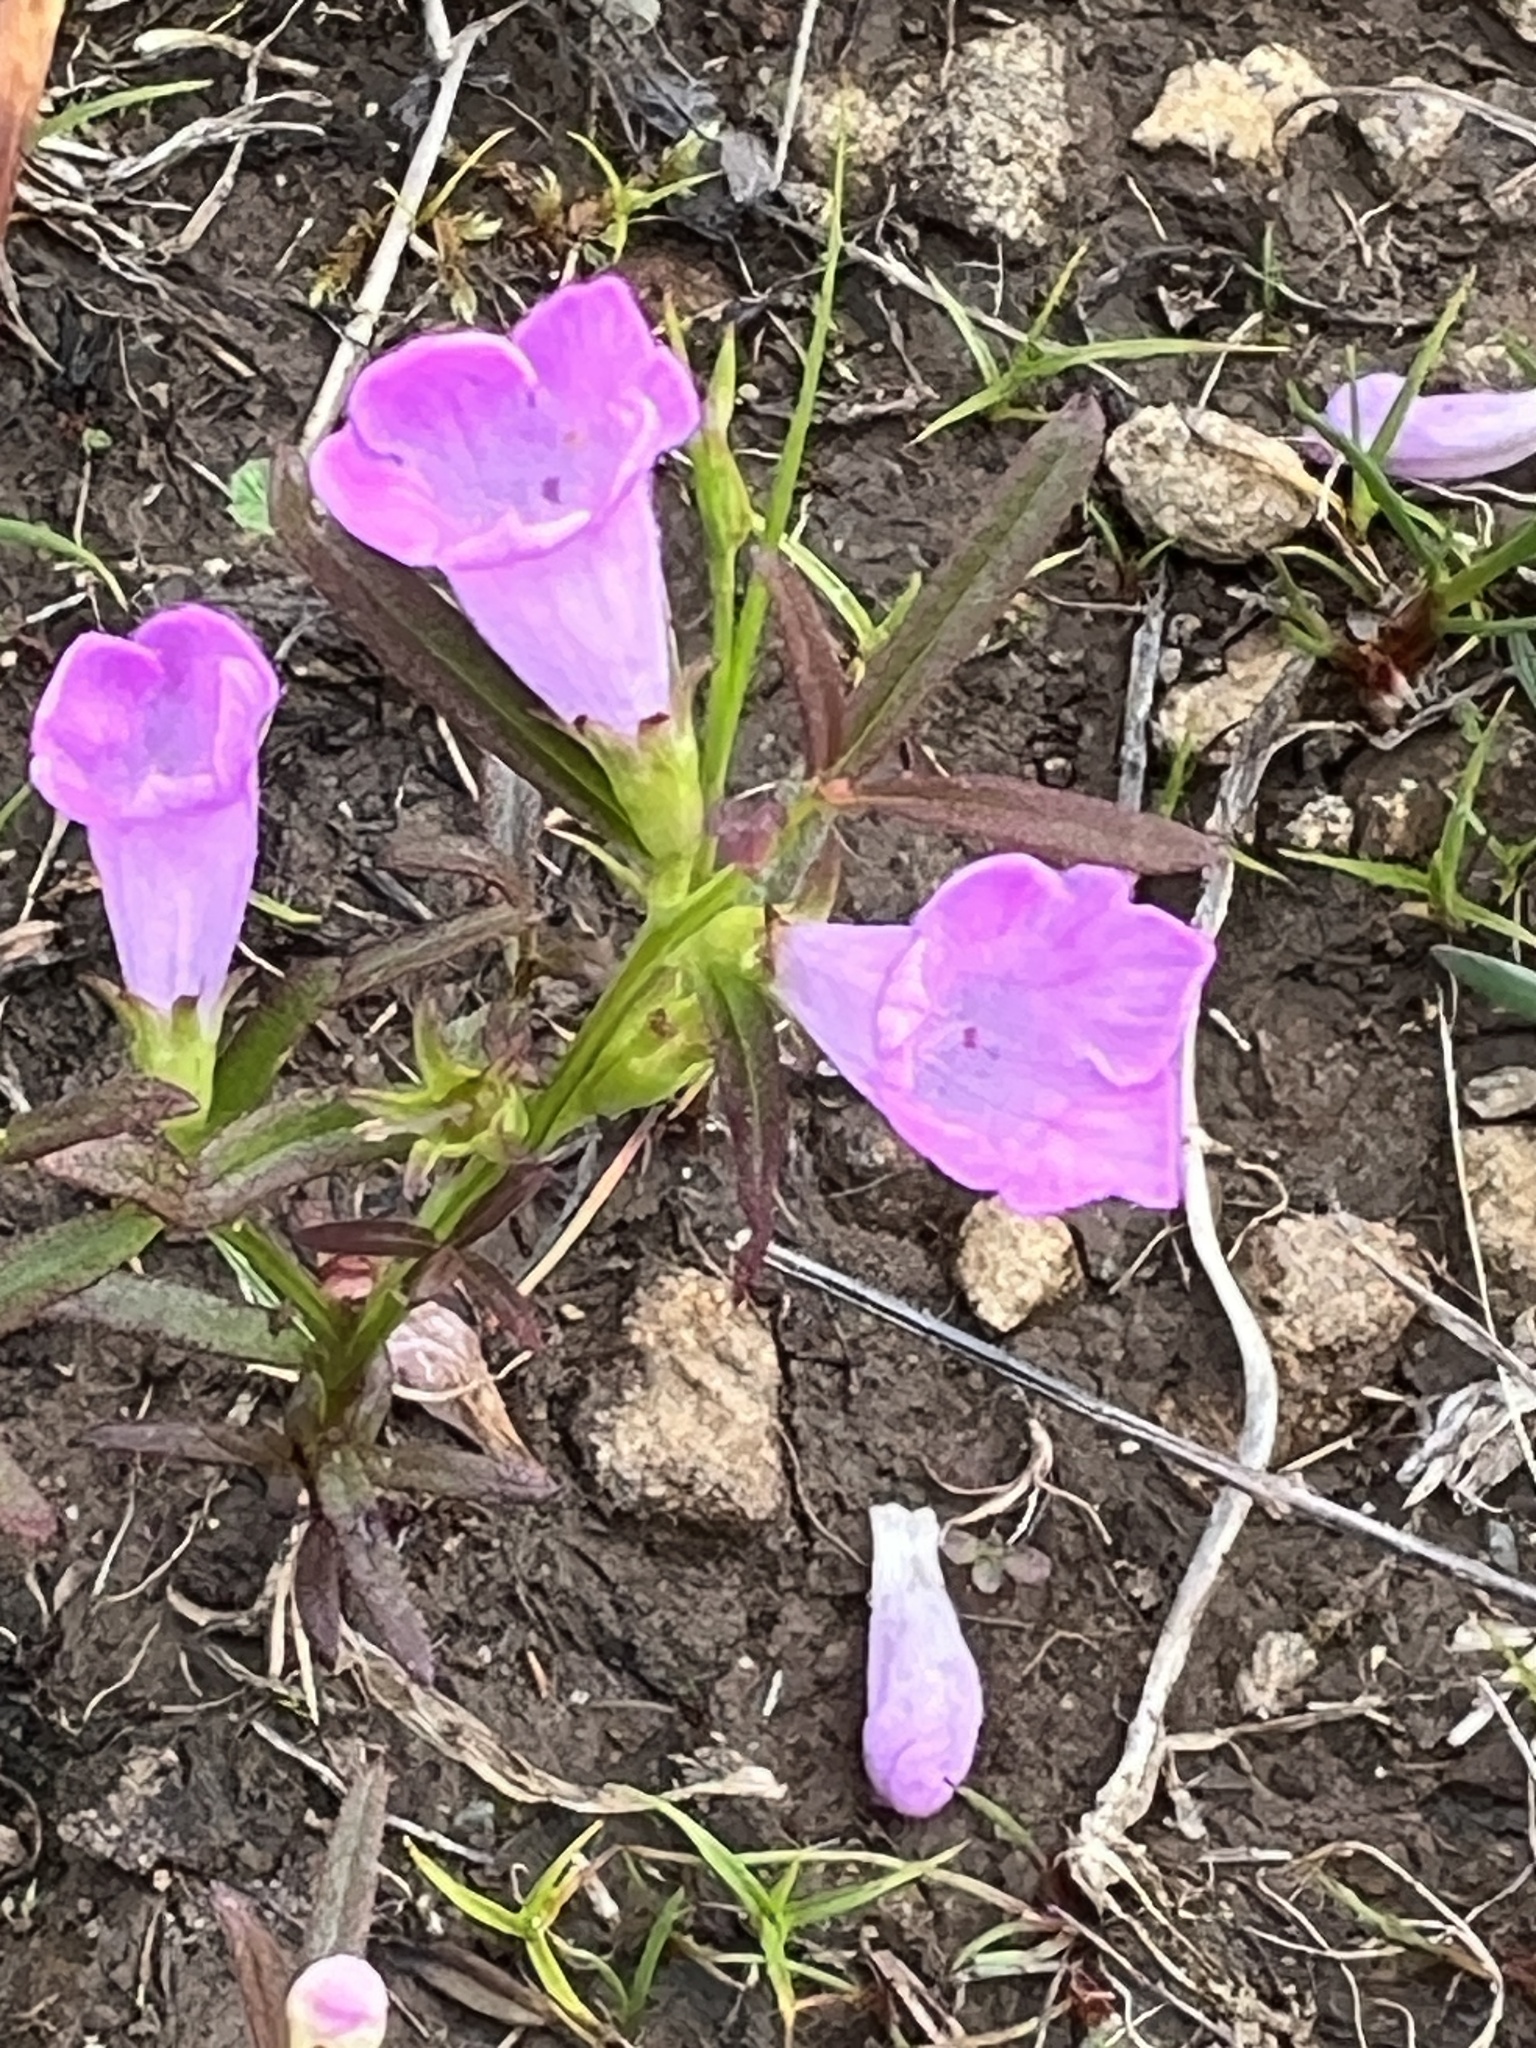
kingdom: Plantae
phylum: Tracheophyta
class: Magnoliopsida
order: Lamiales
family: Orobanchaceae
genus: Agalinis
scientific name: Agalinis neoscotica
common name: Middleton false foxglove
